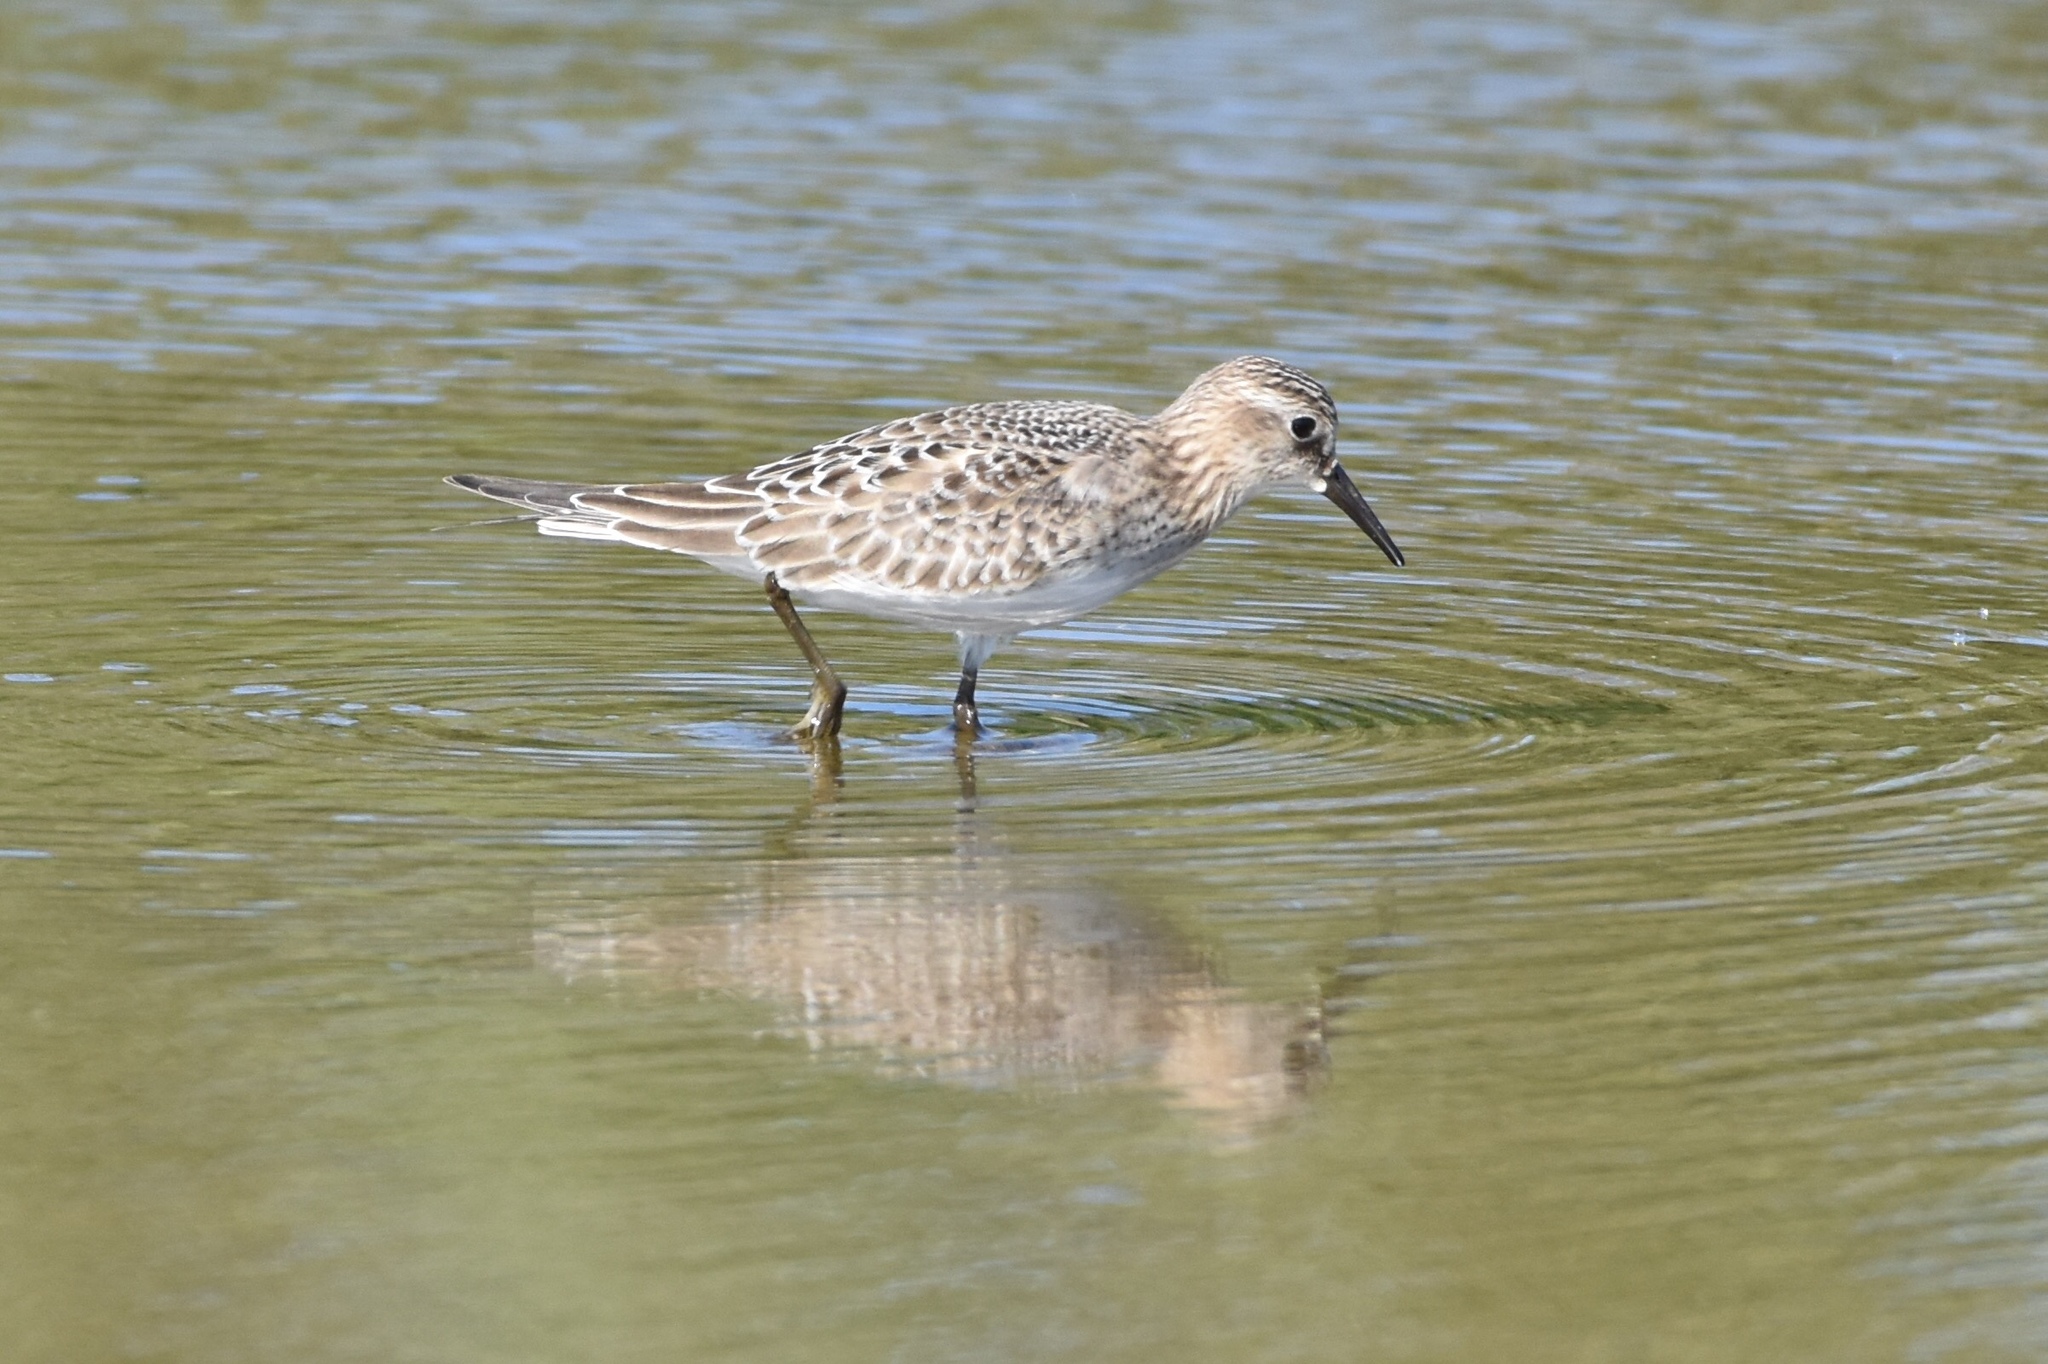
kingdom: Animalia
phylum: Chordata
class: Aves
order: Charadriiformes
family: Scolopacidae
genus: Calidris
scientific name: Calidris bairdii
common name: Baird's sandpiper
